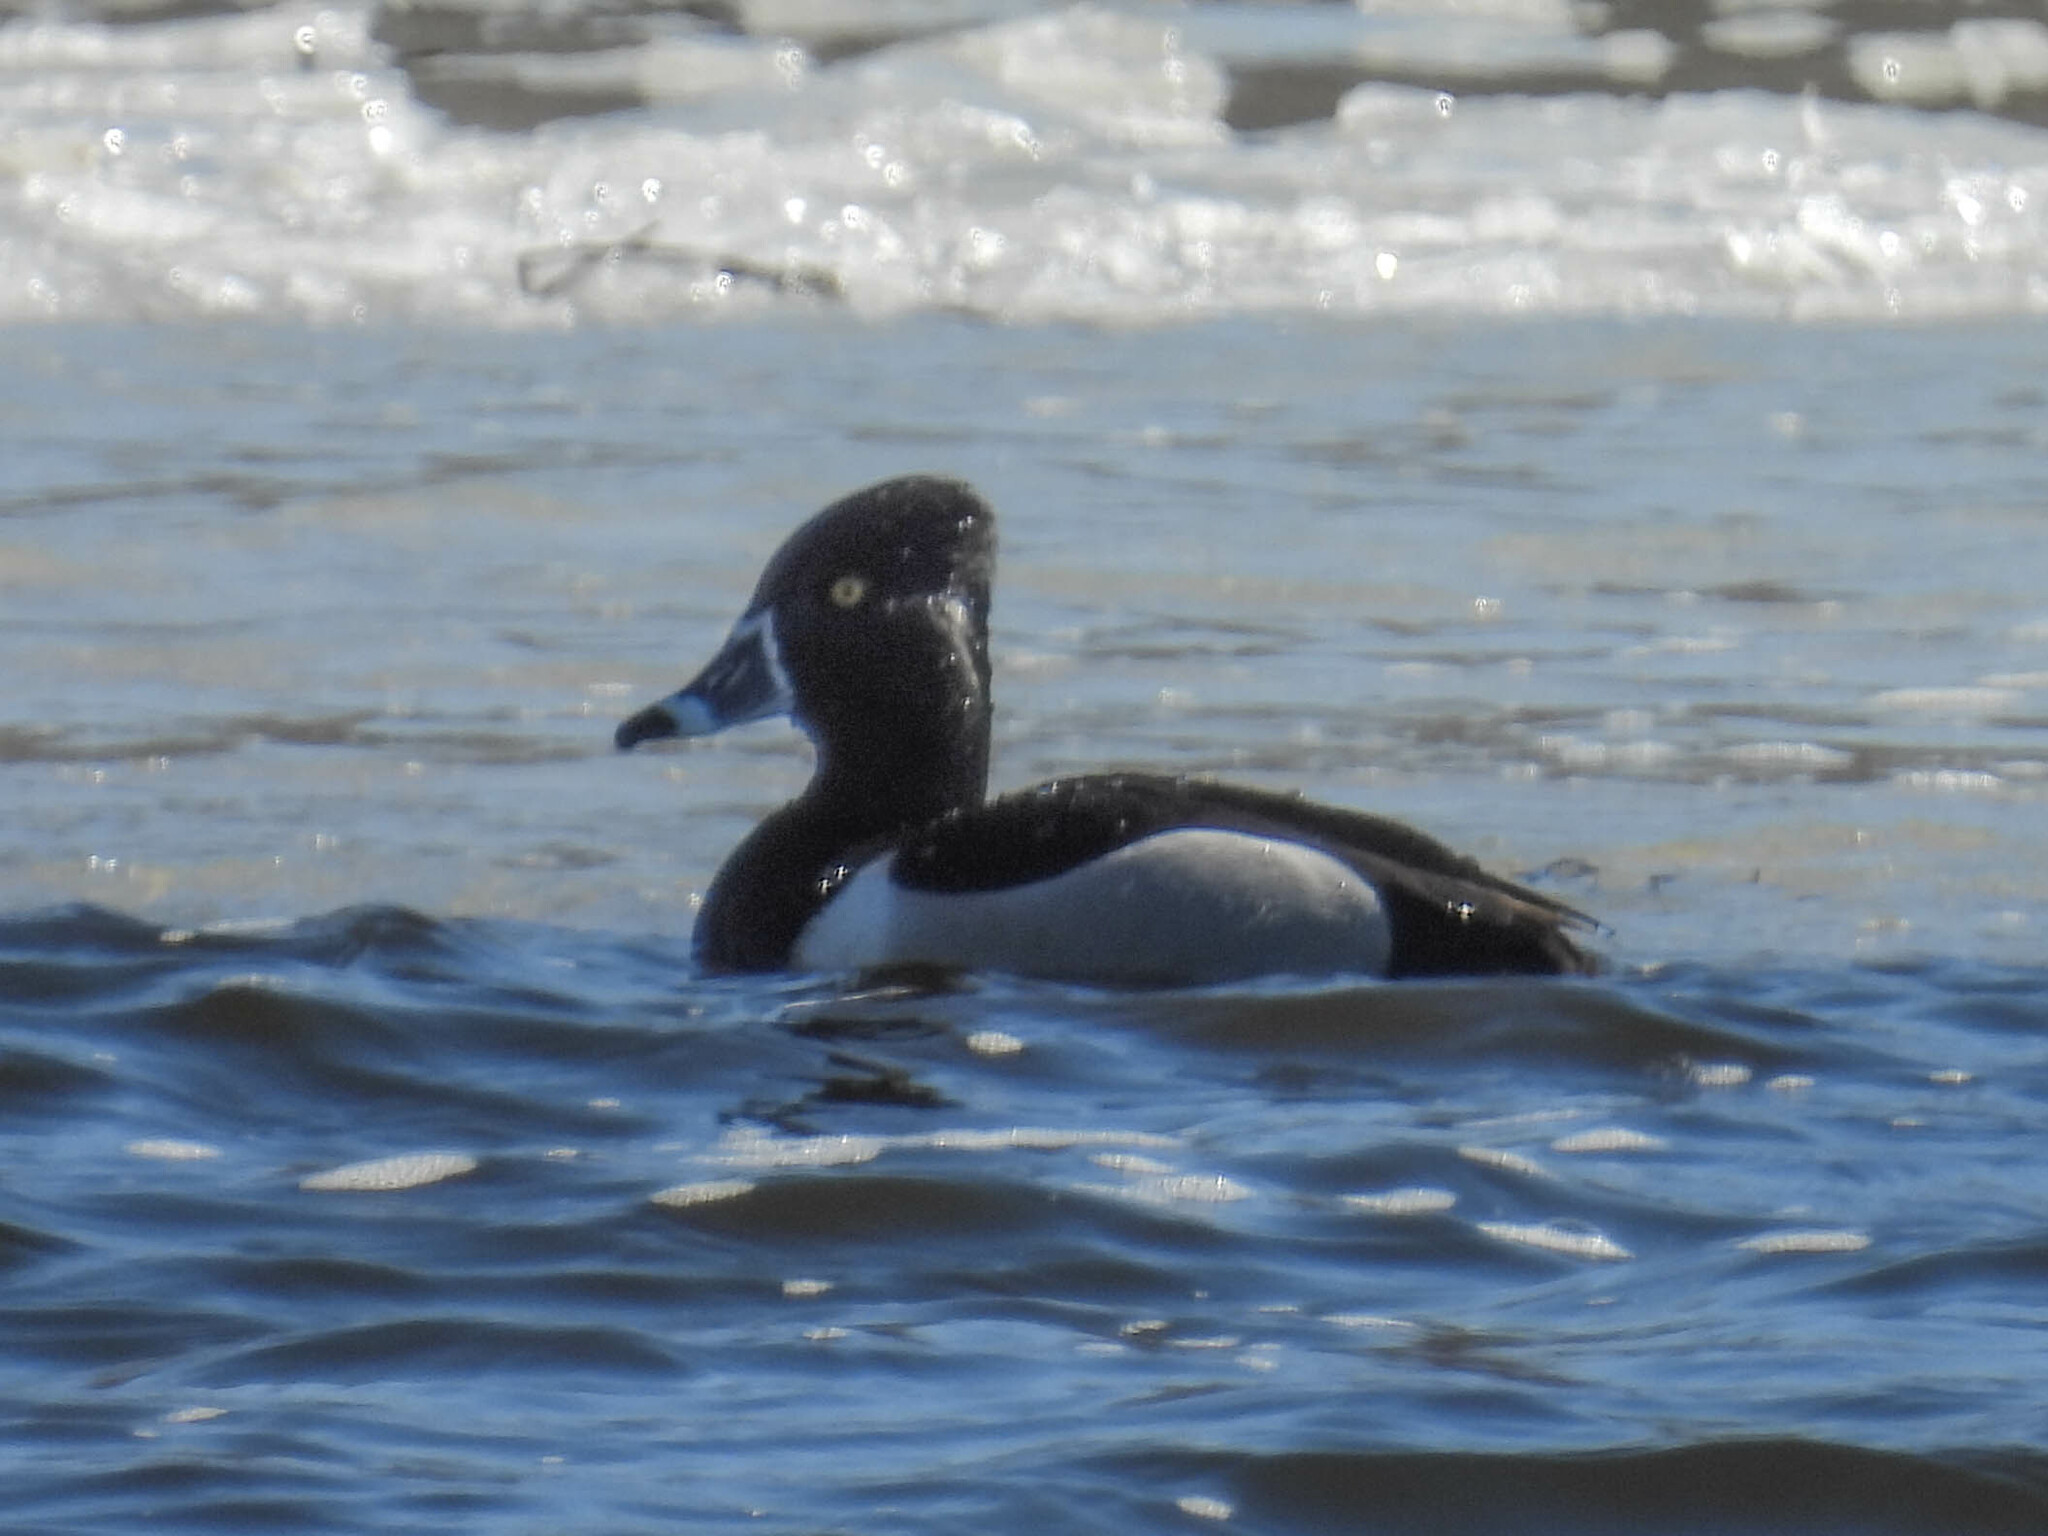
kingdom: Animalia
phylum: Chordata
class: Aves
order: Anseriformes
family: Anatidae
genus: Aythya
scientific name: Aythya collaris
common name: Ring-necked duck
